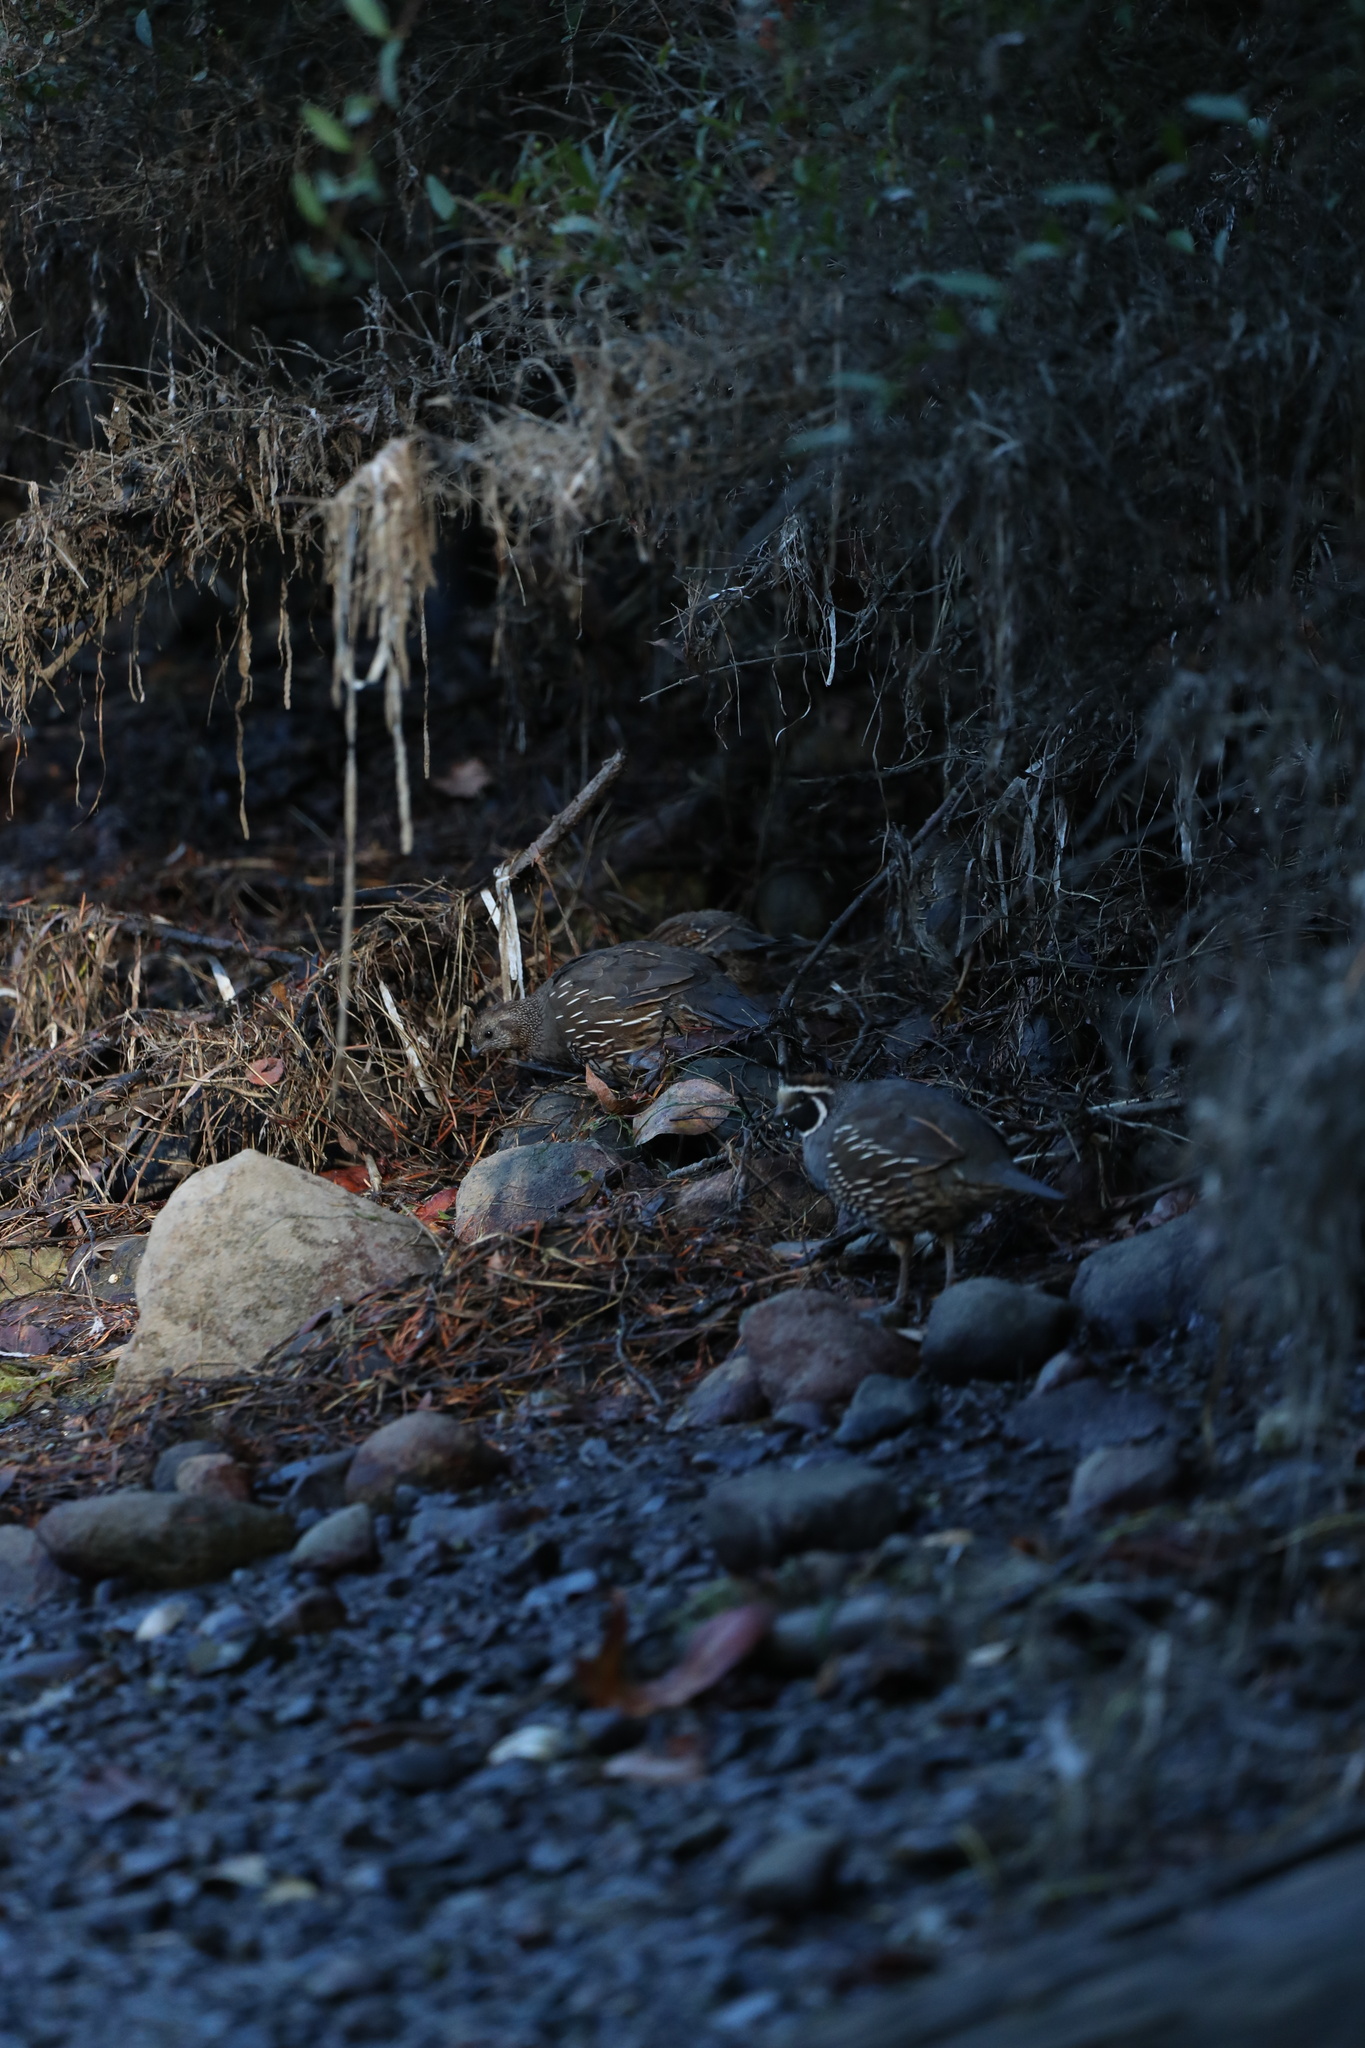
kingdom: Animalia
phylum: Chordata
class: Aves
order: Galliformes
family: Odontophoridae
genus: Callipepla
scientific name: Callipepla californica
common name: California quail
